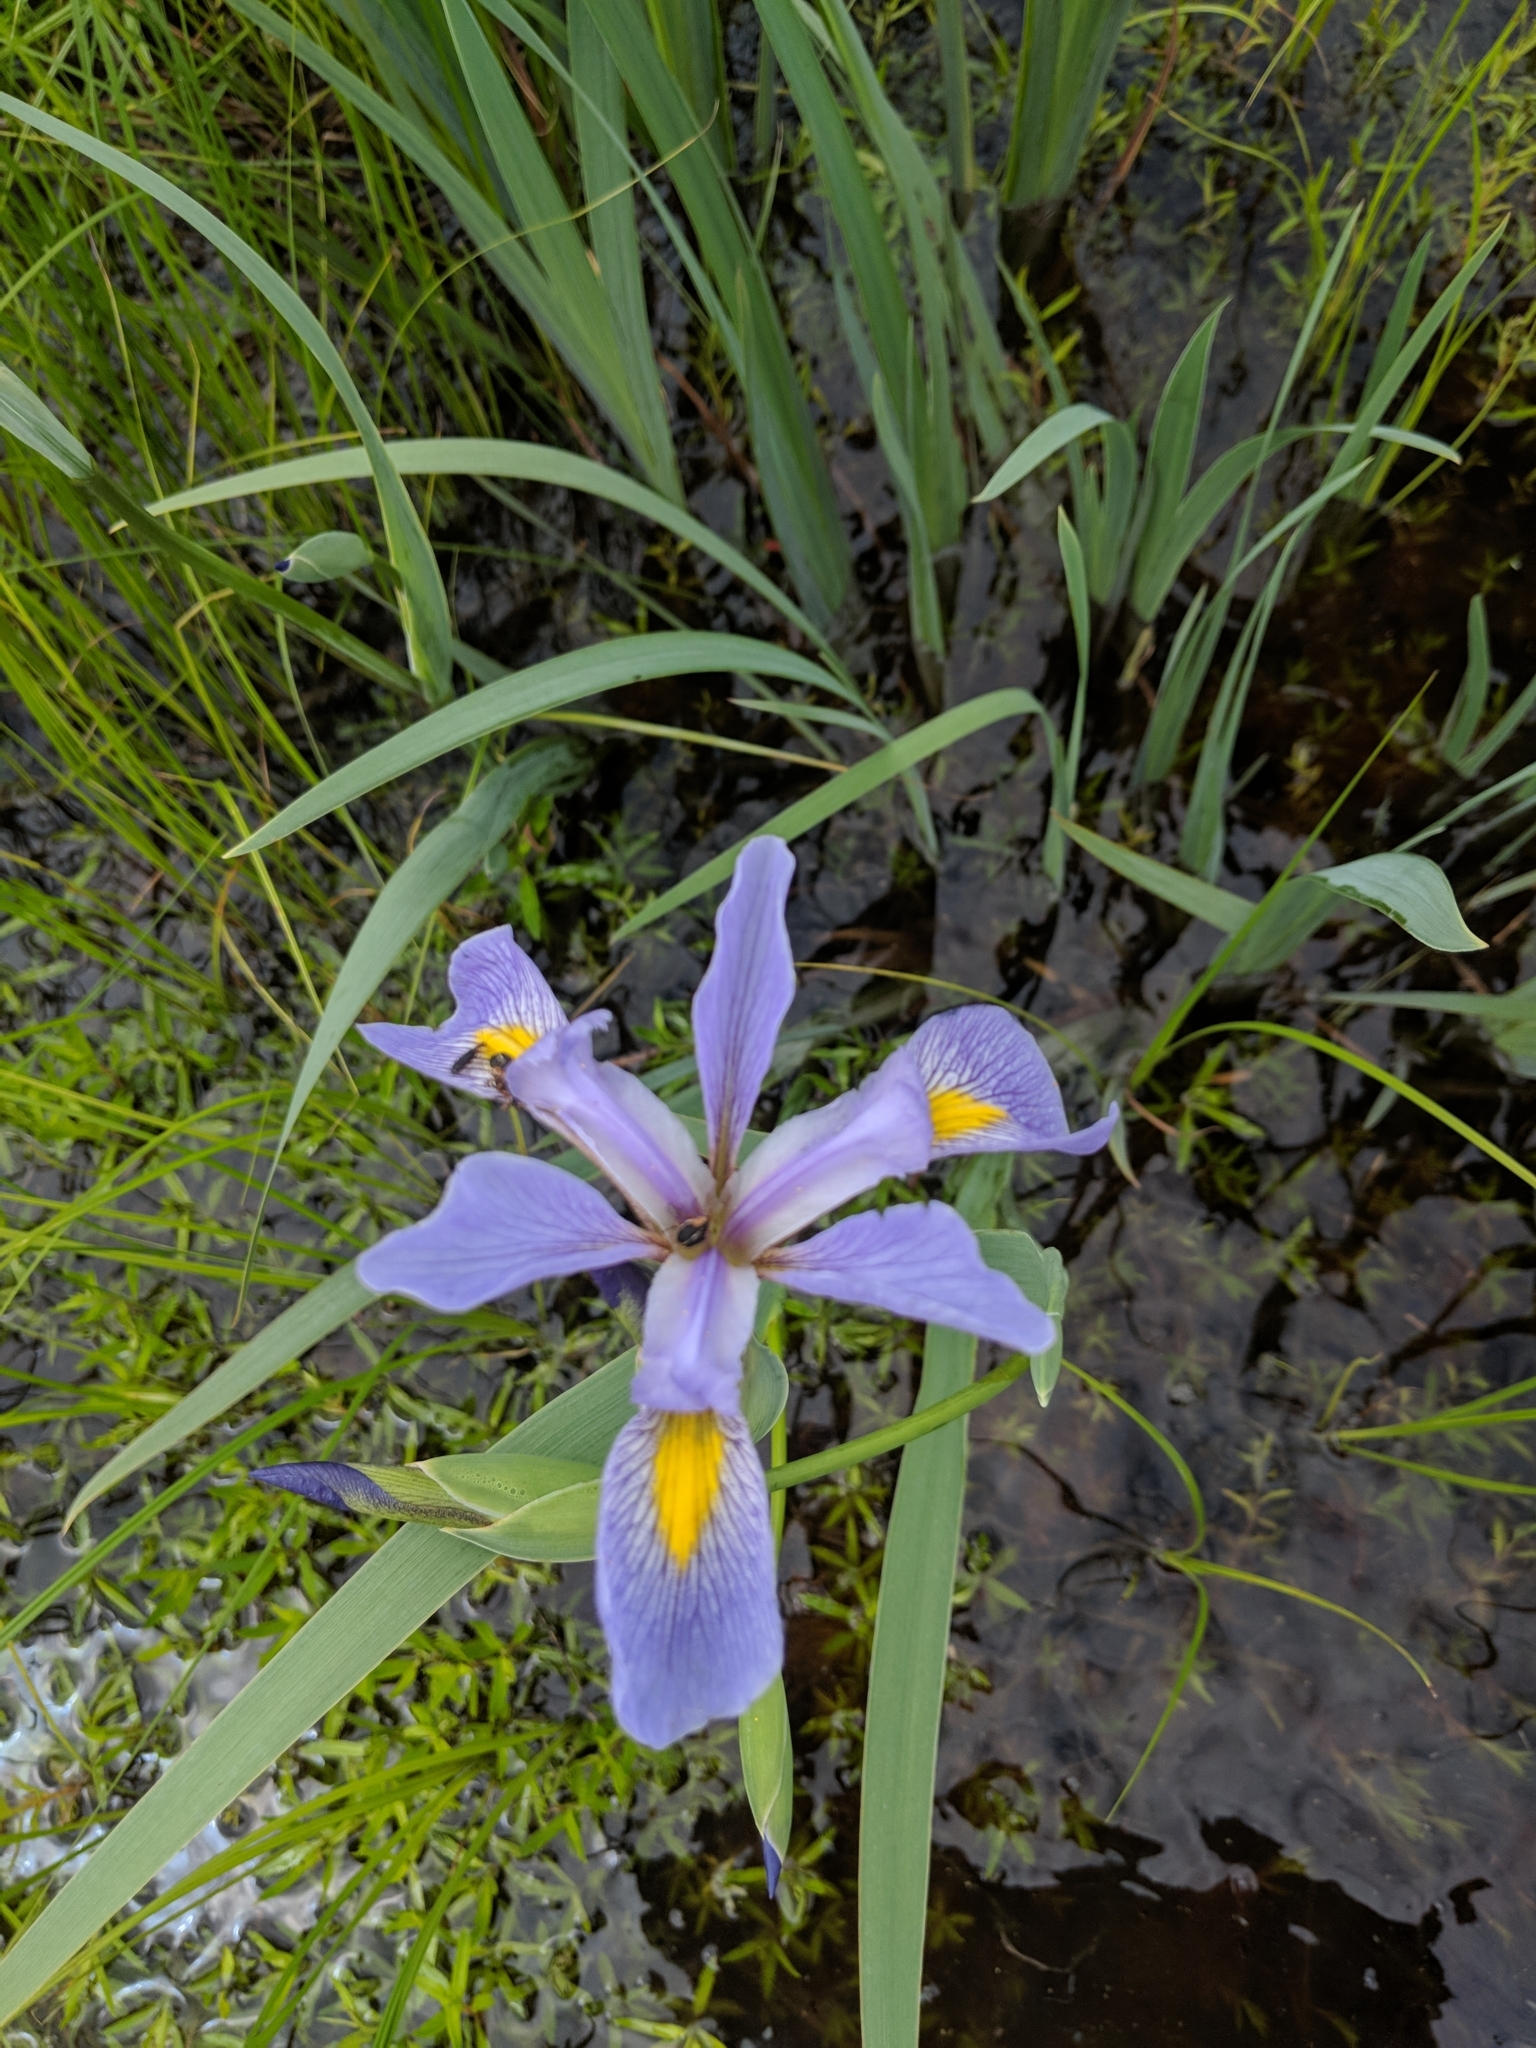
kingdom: Plantae
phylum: Tracheophyta
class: Liliopsida
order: Asparagales
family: Iridaceae
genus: Iris
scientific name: Iris virginica
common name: Southern blue flag
